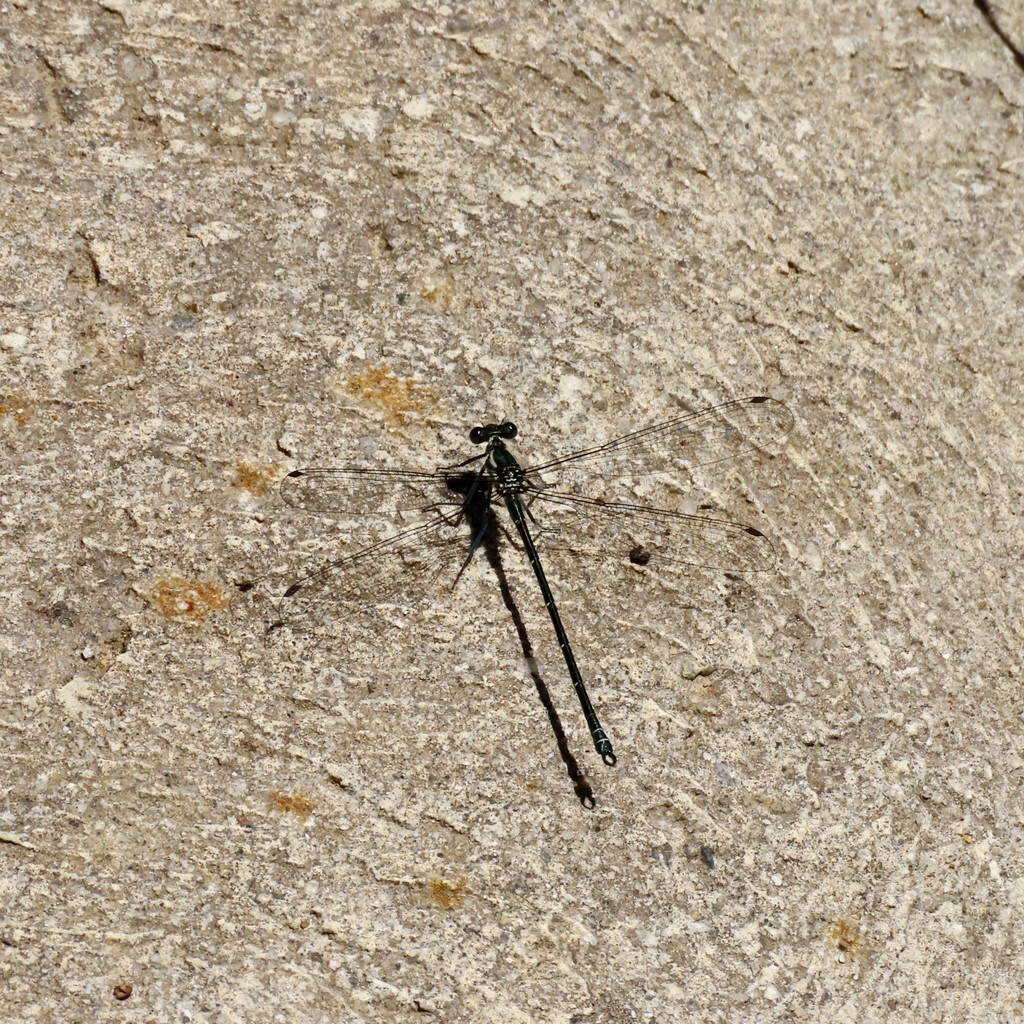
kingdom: Animalia
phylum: Arthropoda
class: Insecta
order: Odonata
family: Argiolestidae
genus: Austroargiolestes
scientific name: Austroargiolestes icteromelas
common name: Common flatwing
